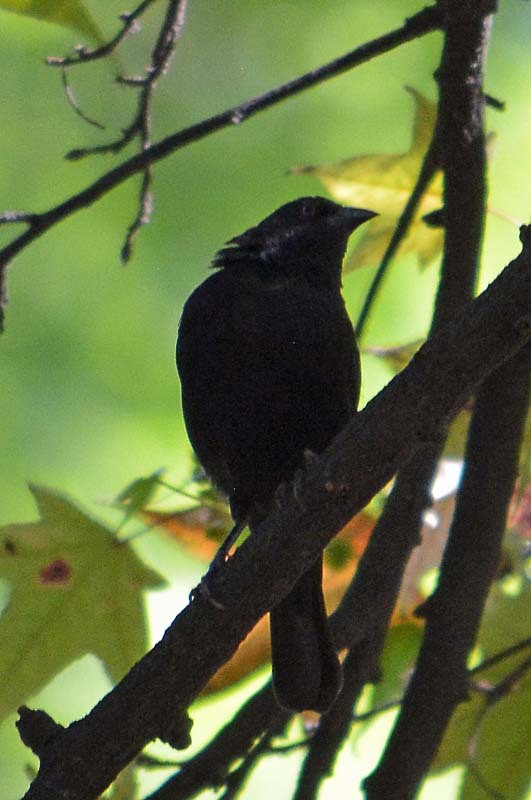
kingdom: Animalia
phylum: Chordata
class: Aves
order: Passeriformes
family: Icteridae
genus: Molothrus
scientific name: Molothrus aeneus
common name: Bronzed cowbird
